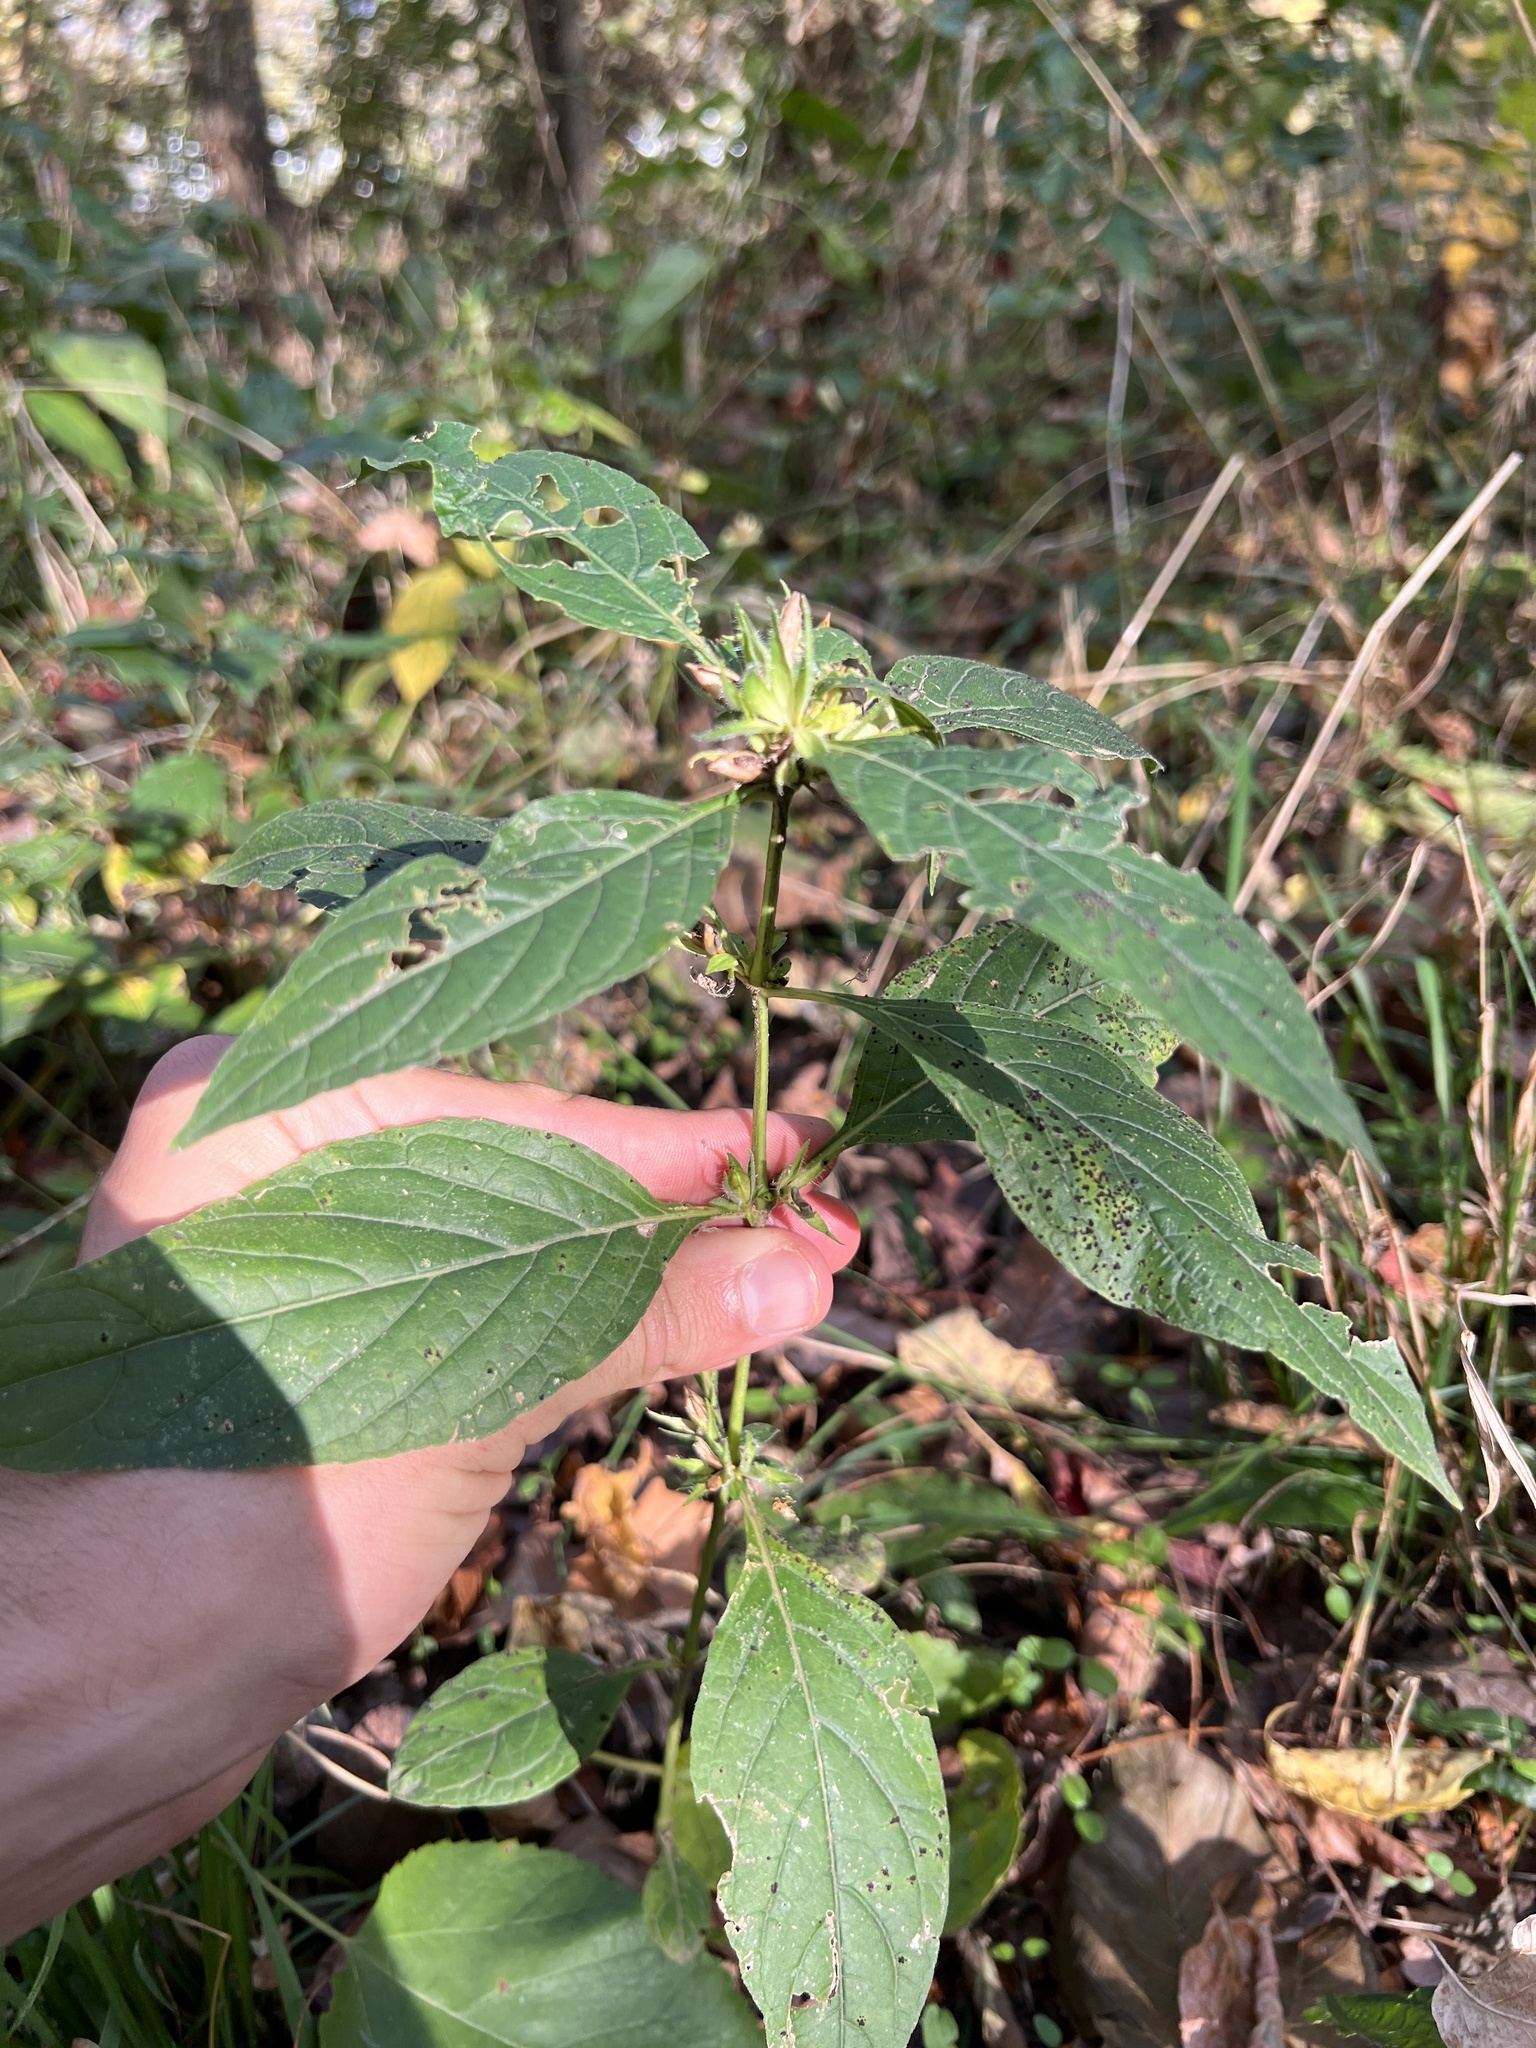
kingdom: Plantae
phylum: Tracheophyta
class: Magnoliopsida
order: Lamiales
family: Acanthaceae
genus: Ruellia
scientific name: Ruellia strepens
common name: Limestone wild petunia
